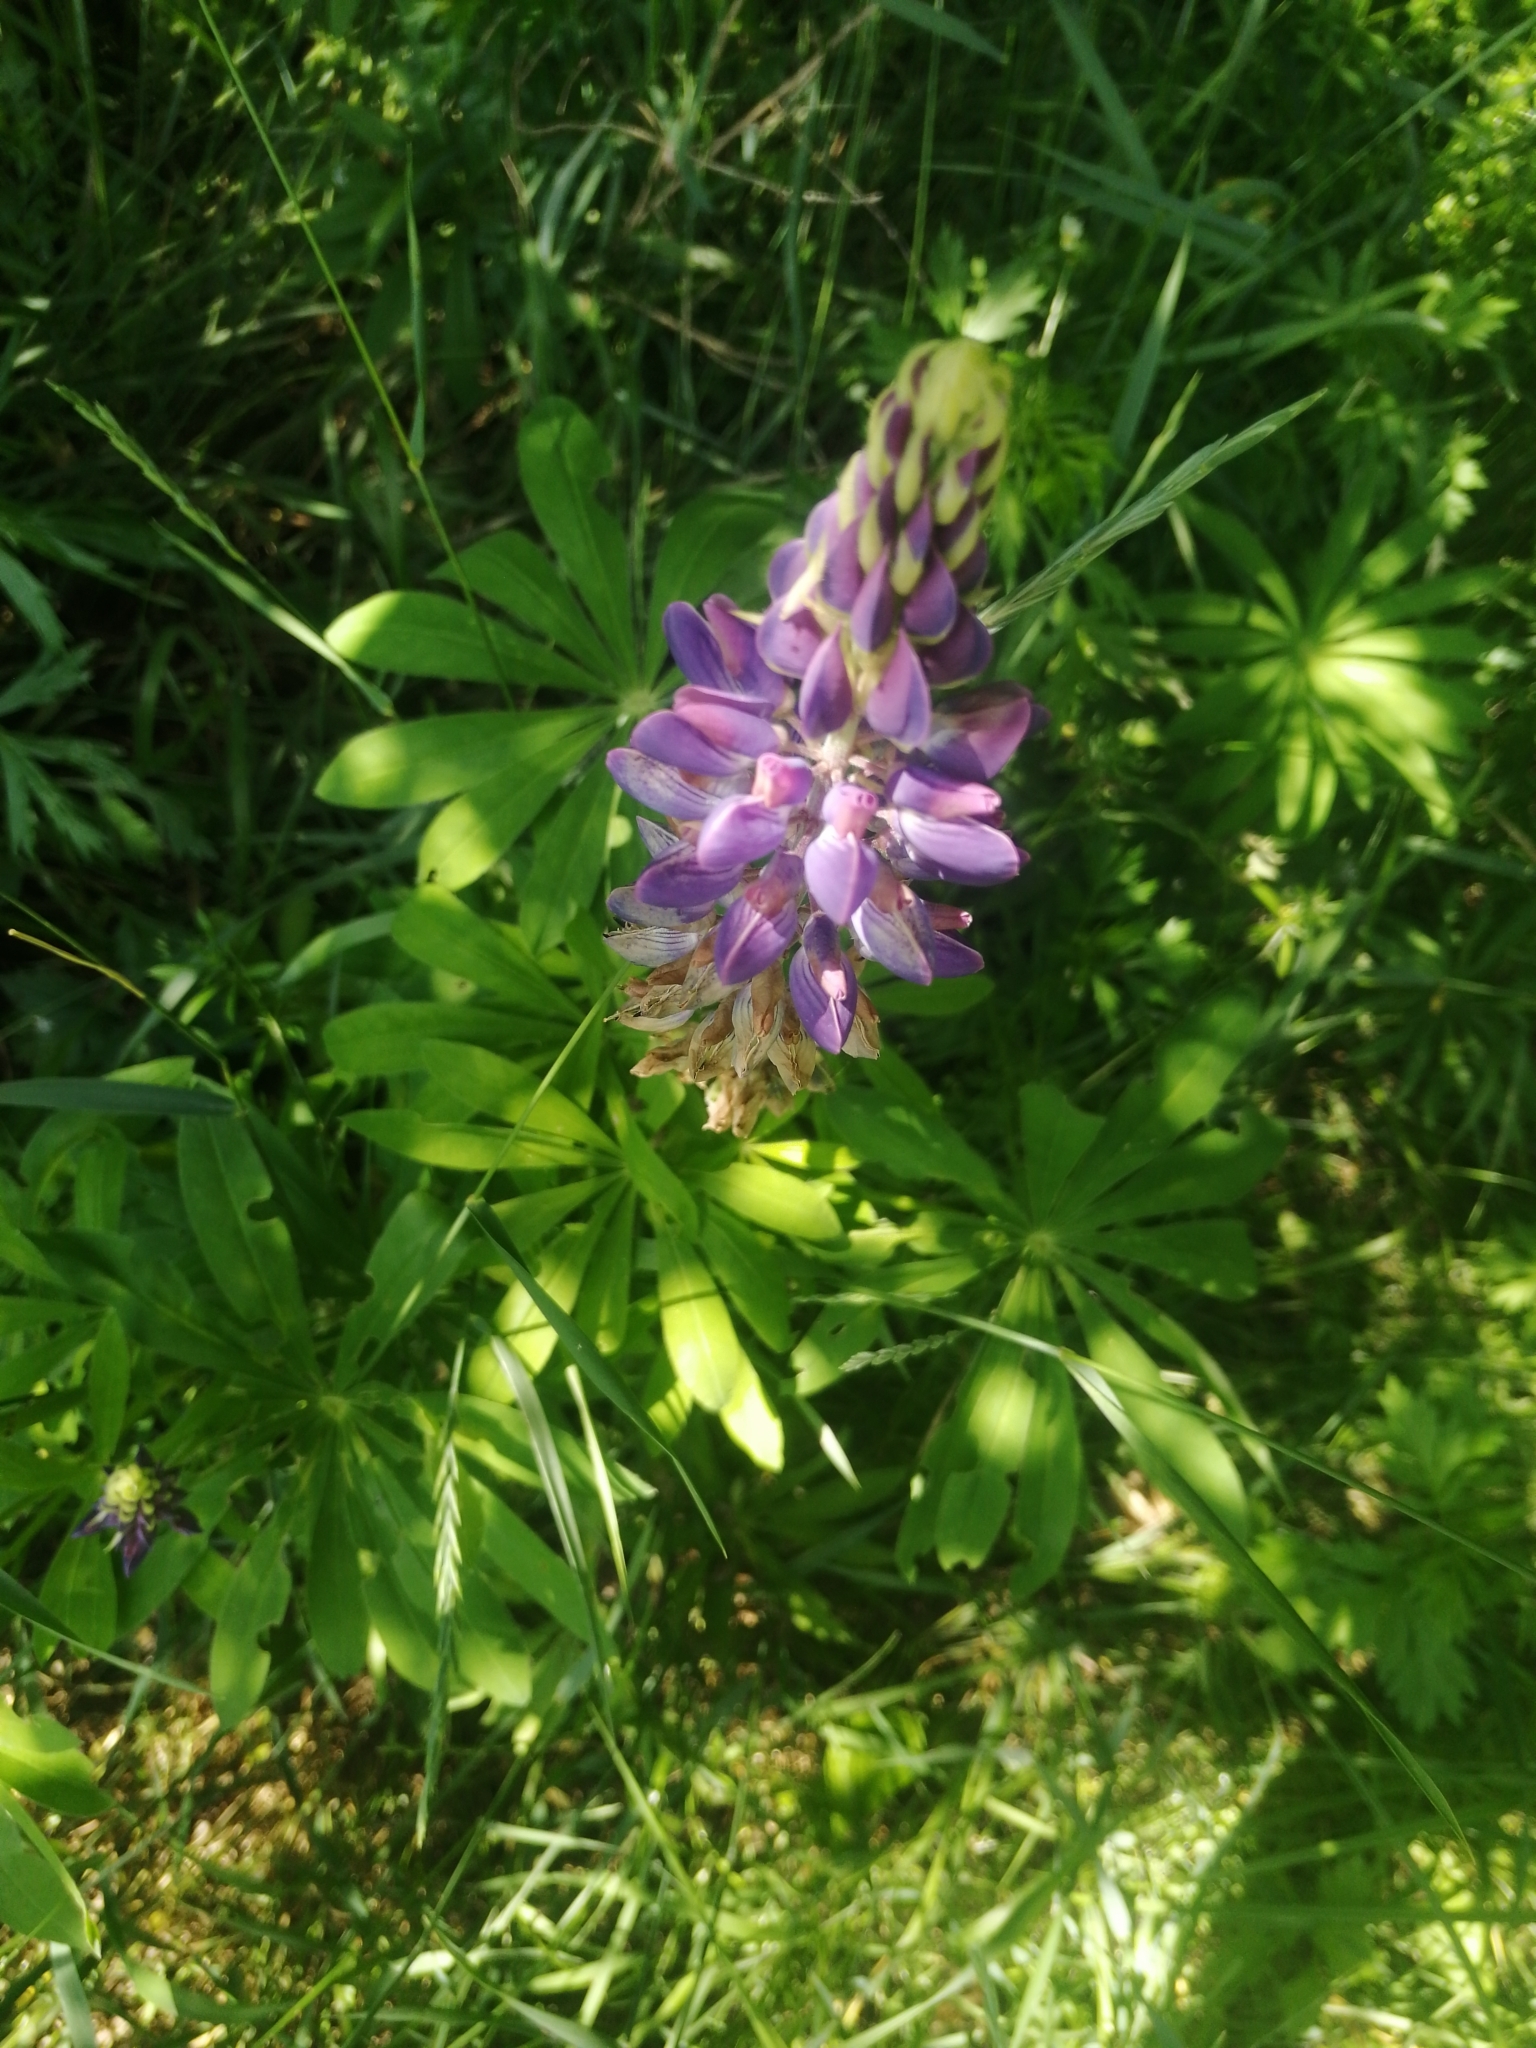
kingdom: Plantae
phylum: Tracheophyta
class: Magnoliopsida
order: Fabales
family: Fabaceae
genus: Lupinus
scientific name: Lupinus polyphyllus
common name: Garden lupin
